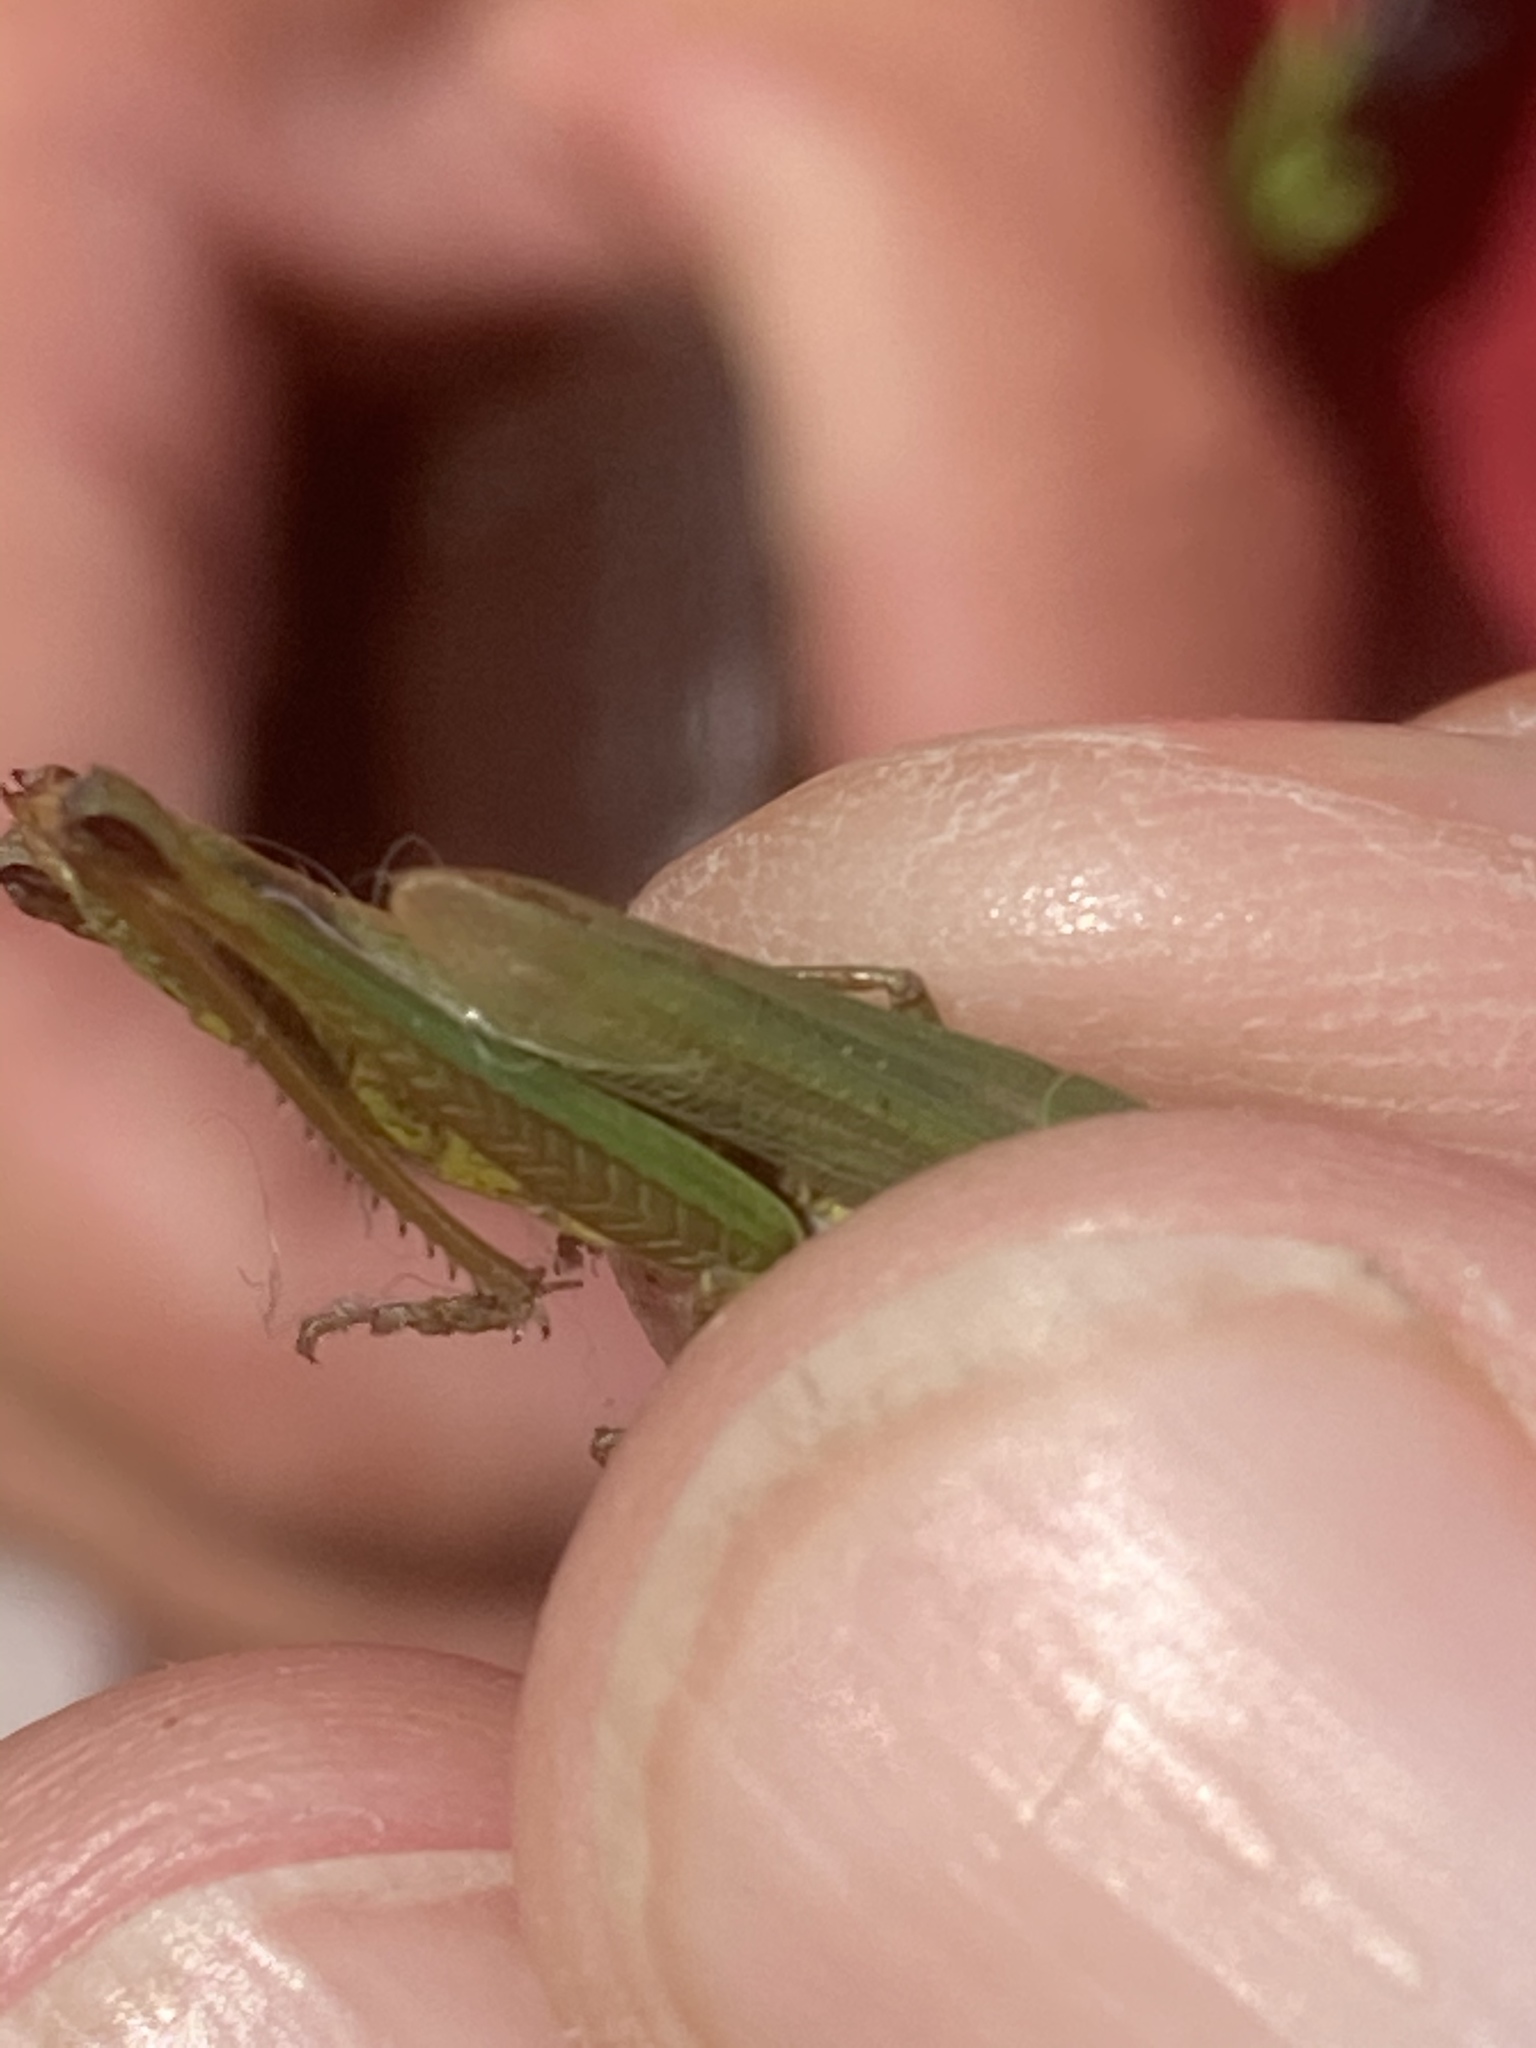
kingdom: Animalia
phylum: Arthropoda
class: Insecta
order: Orthoptera
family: Acrididae
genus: Pseudochorthippus
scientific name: Pseudochorthippus montanus
